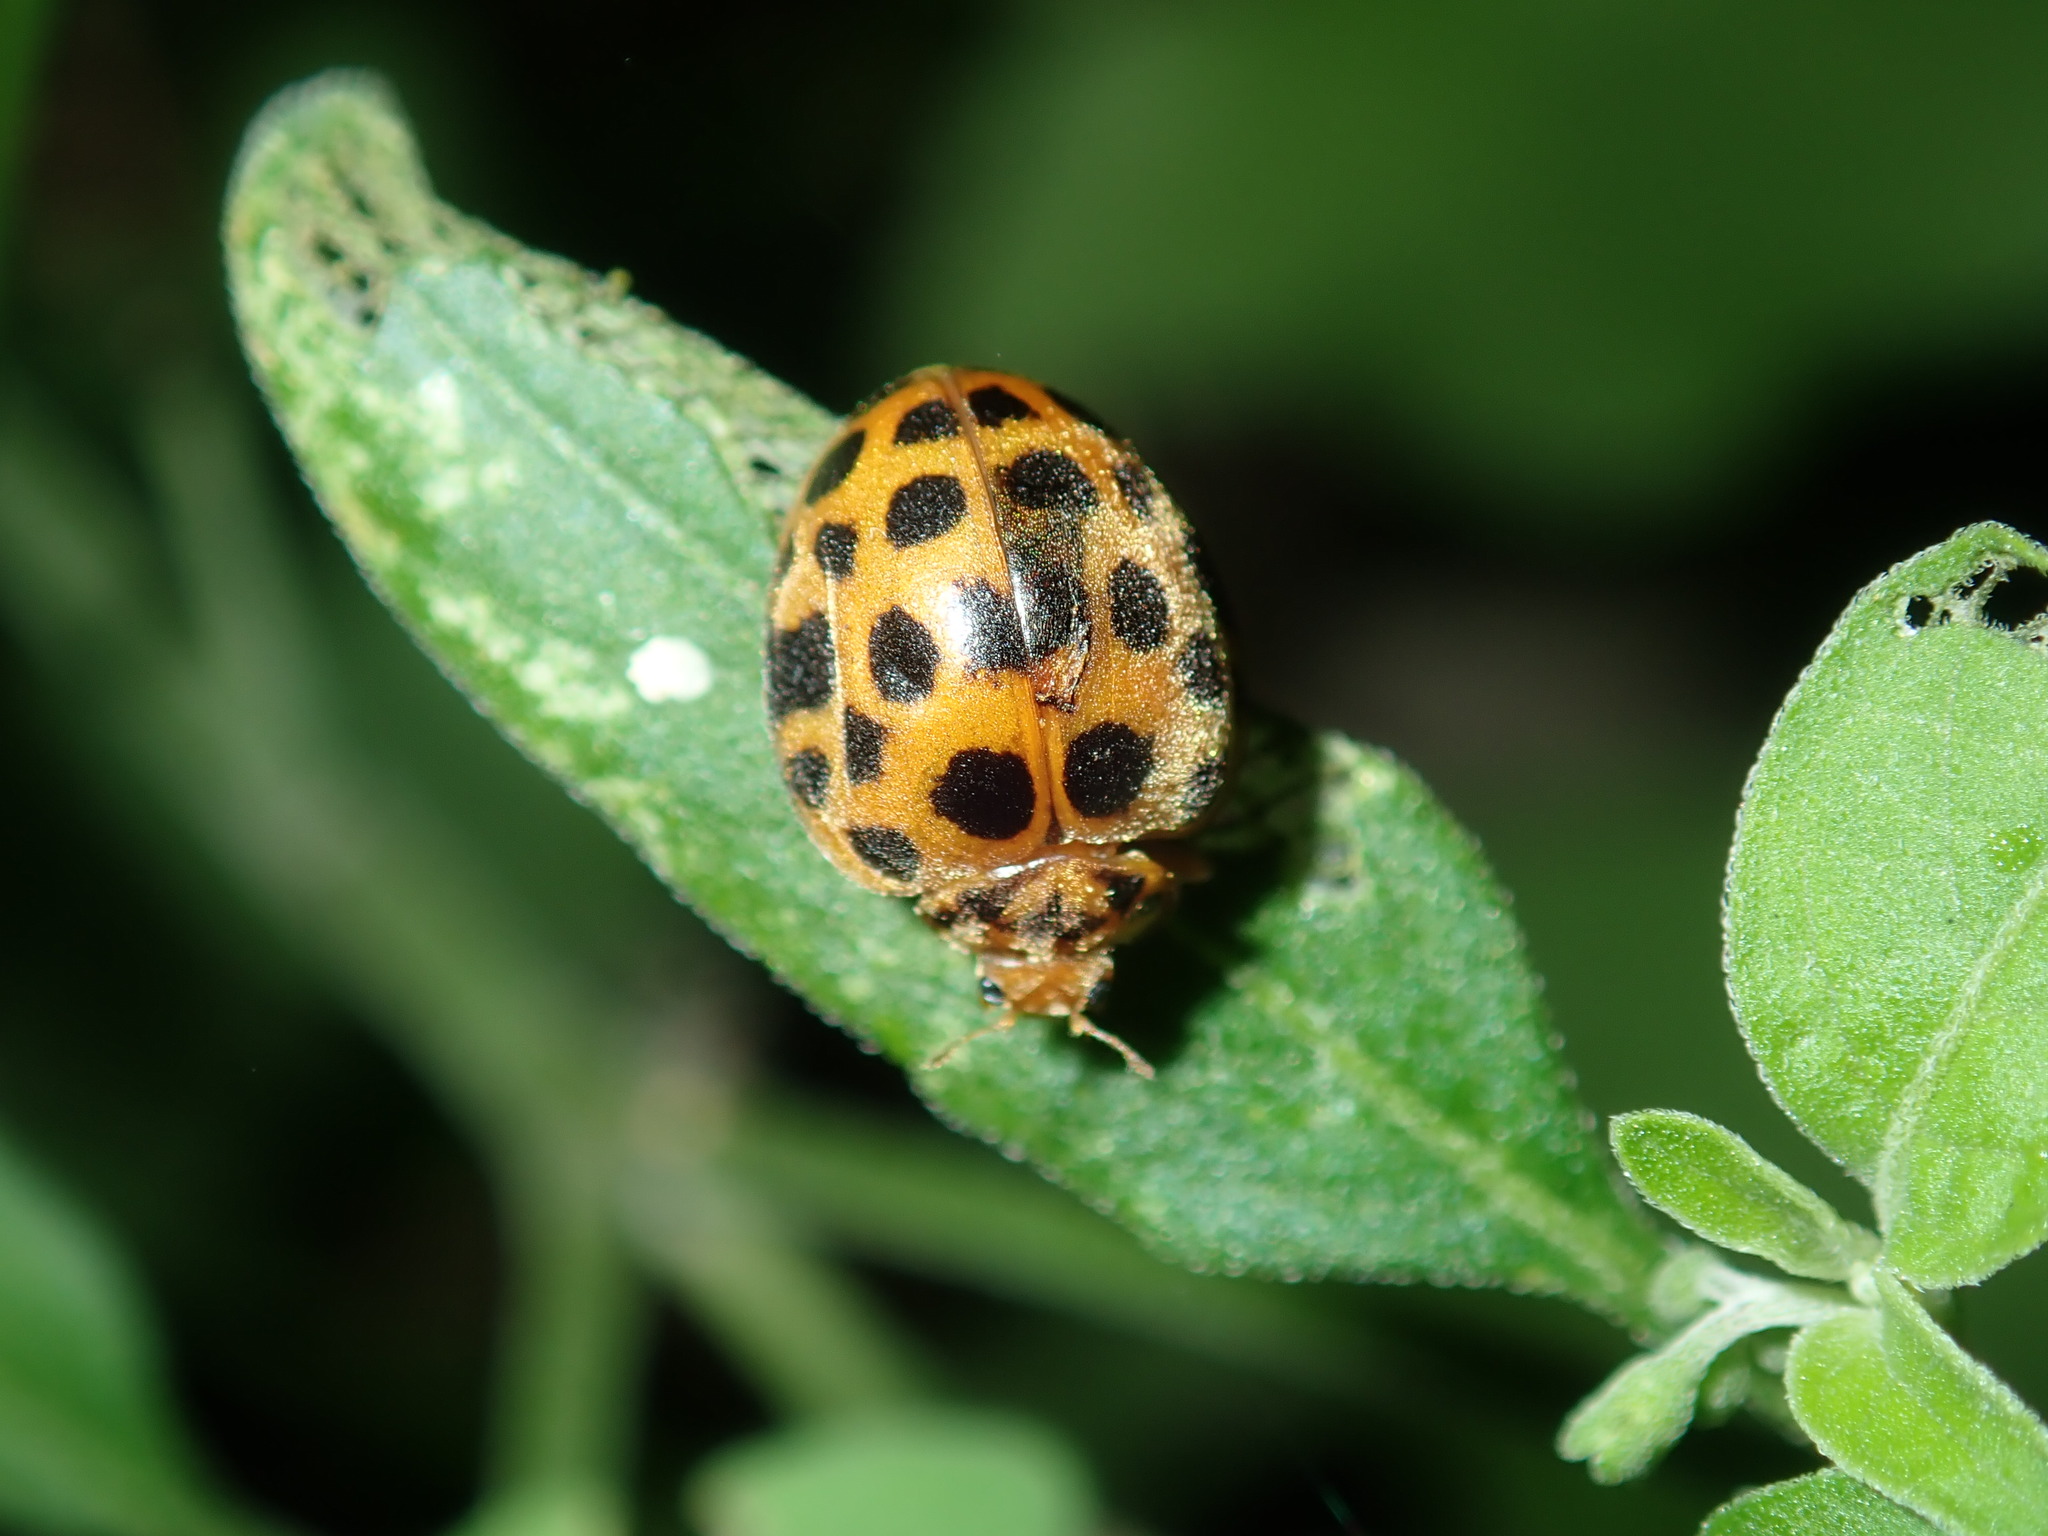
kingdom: Animalia
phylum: Arthropoda
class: Insecta
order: Coleoptera
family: Coccinellidae
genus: Henosepilachna
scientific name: Henosepilachna vigintioctopunctata
